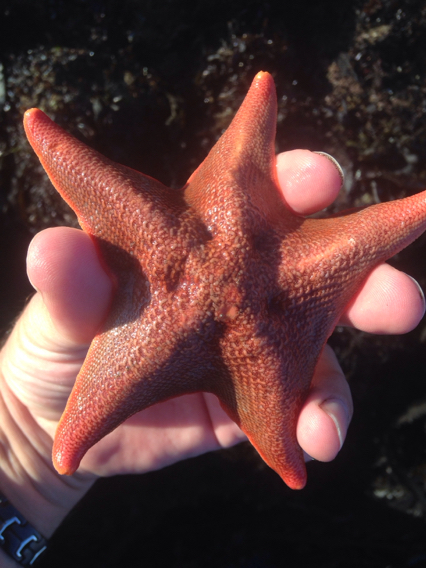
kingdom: Animalia
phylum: Echinodermata
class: Asteroidea
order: Valvatida
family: Asterinidae
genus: Patiria
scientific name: Patiria miniata
